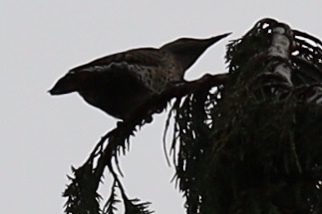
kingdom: Animalia
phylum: Chordata
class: Aves
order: Piciformes
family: Picidae
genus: Colaptes
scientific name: Colaptes auratus
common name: Northern flicker
